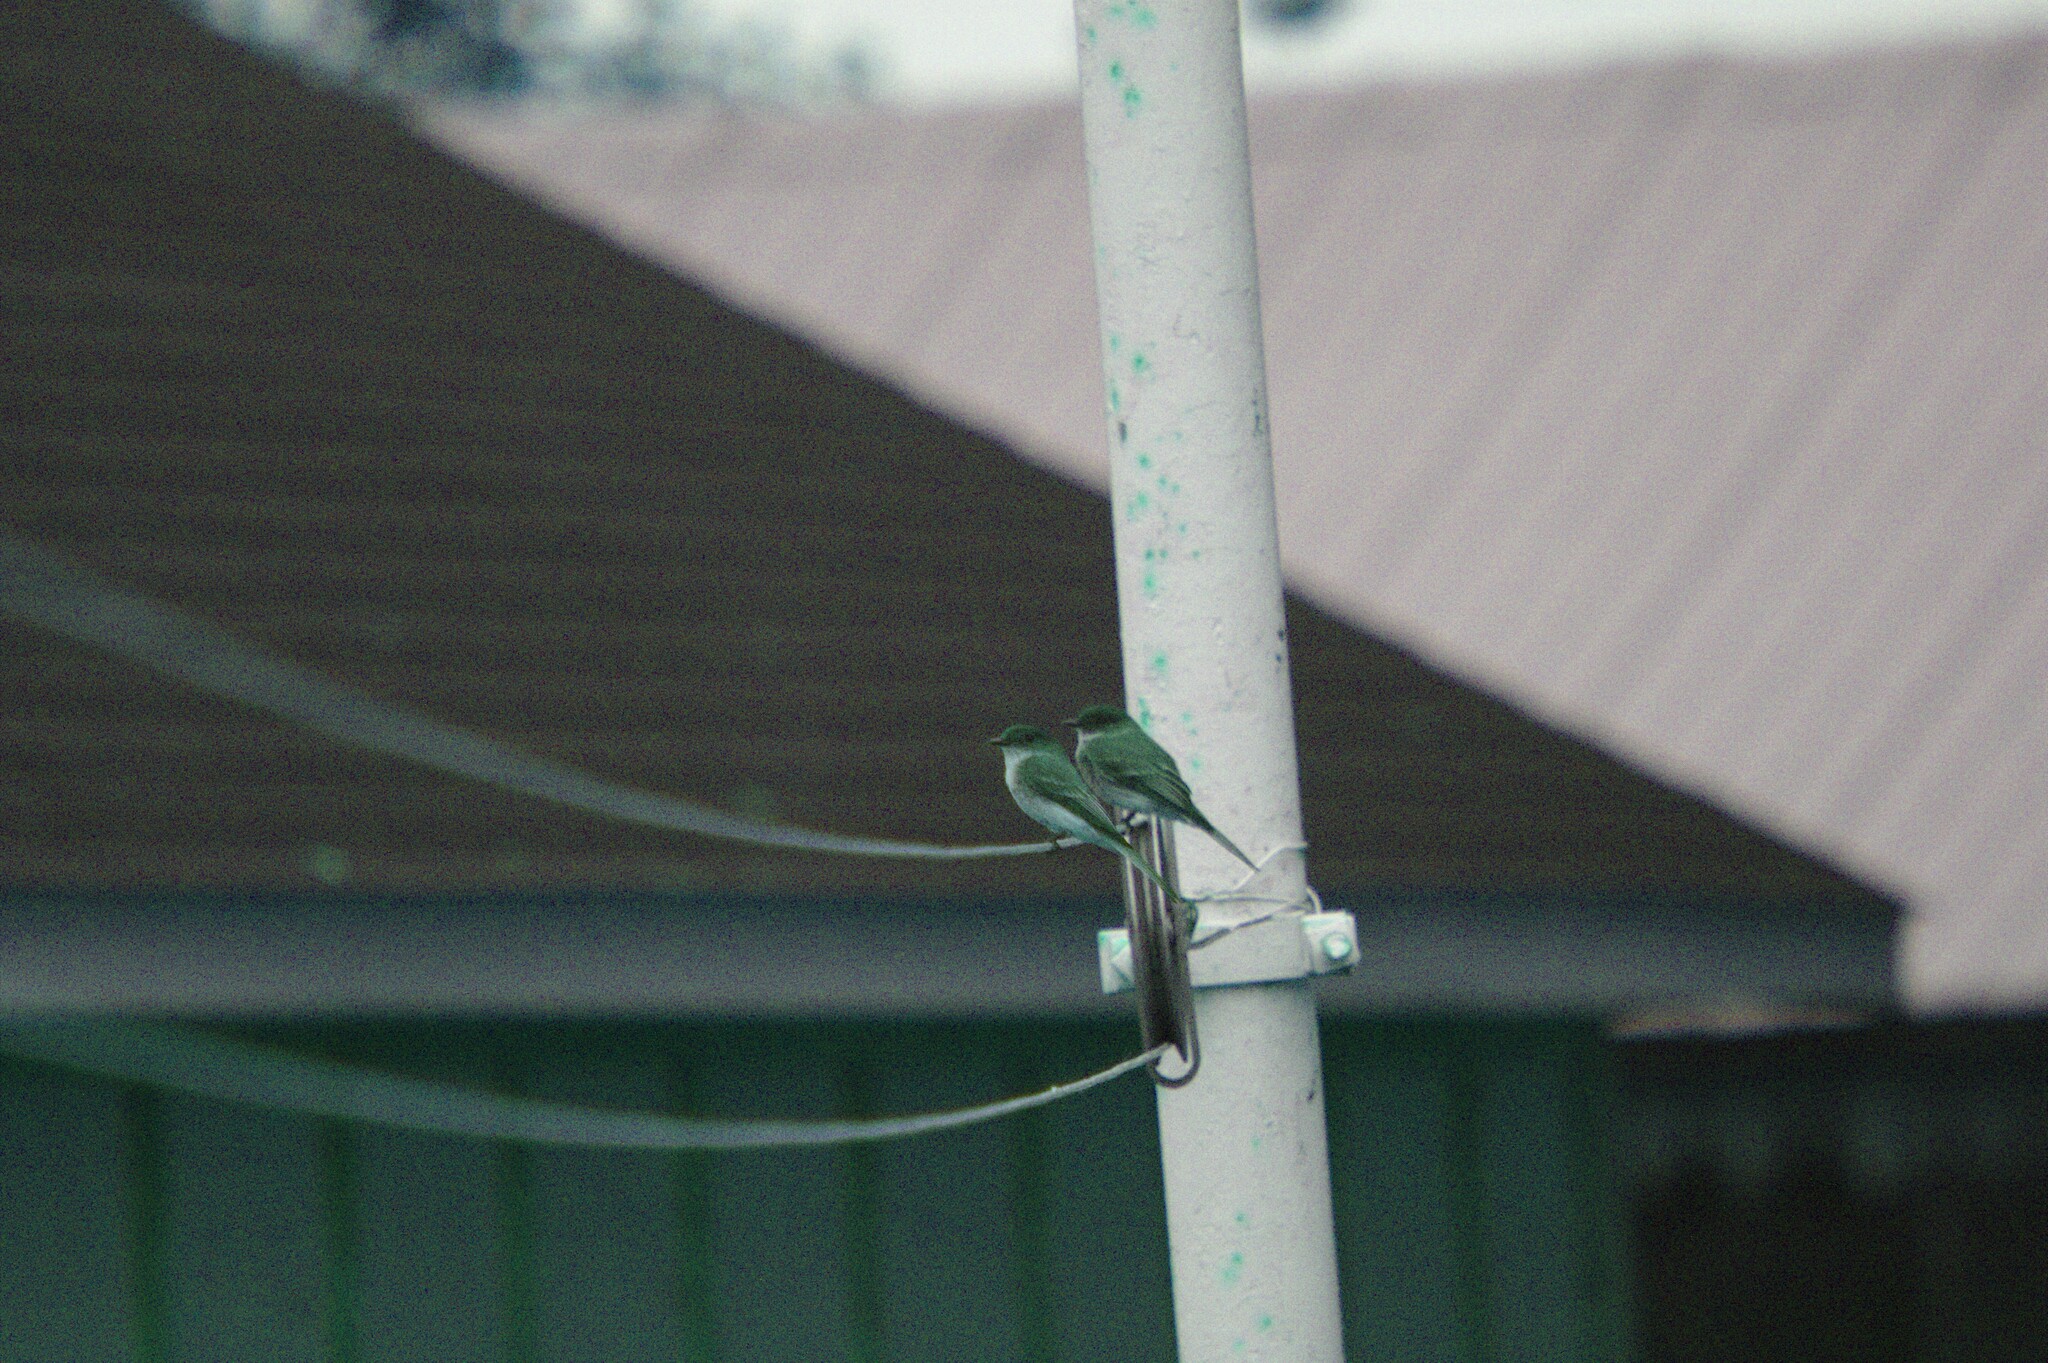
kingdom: Animalia
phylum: Chordata
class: Aves
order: Passeriformes
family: Tyrannidae
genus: Sayornis
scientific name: Sayornis phoebe
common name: Eastern phoebe
